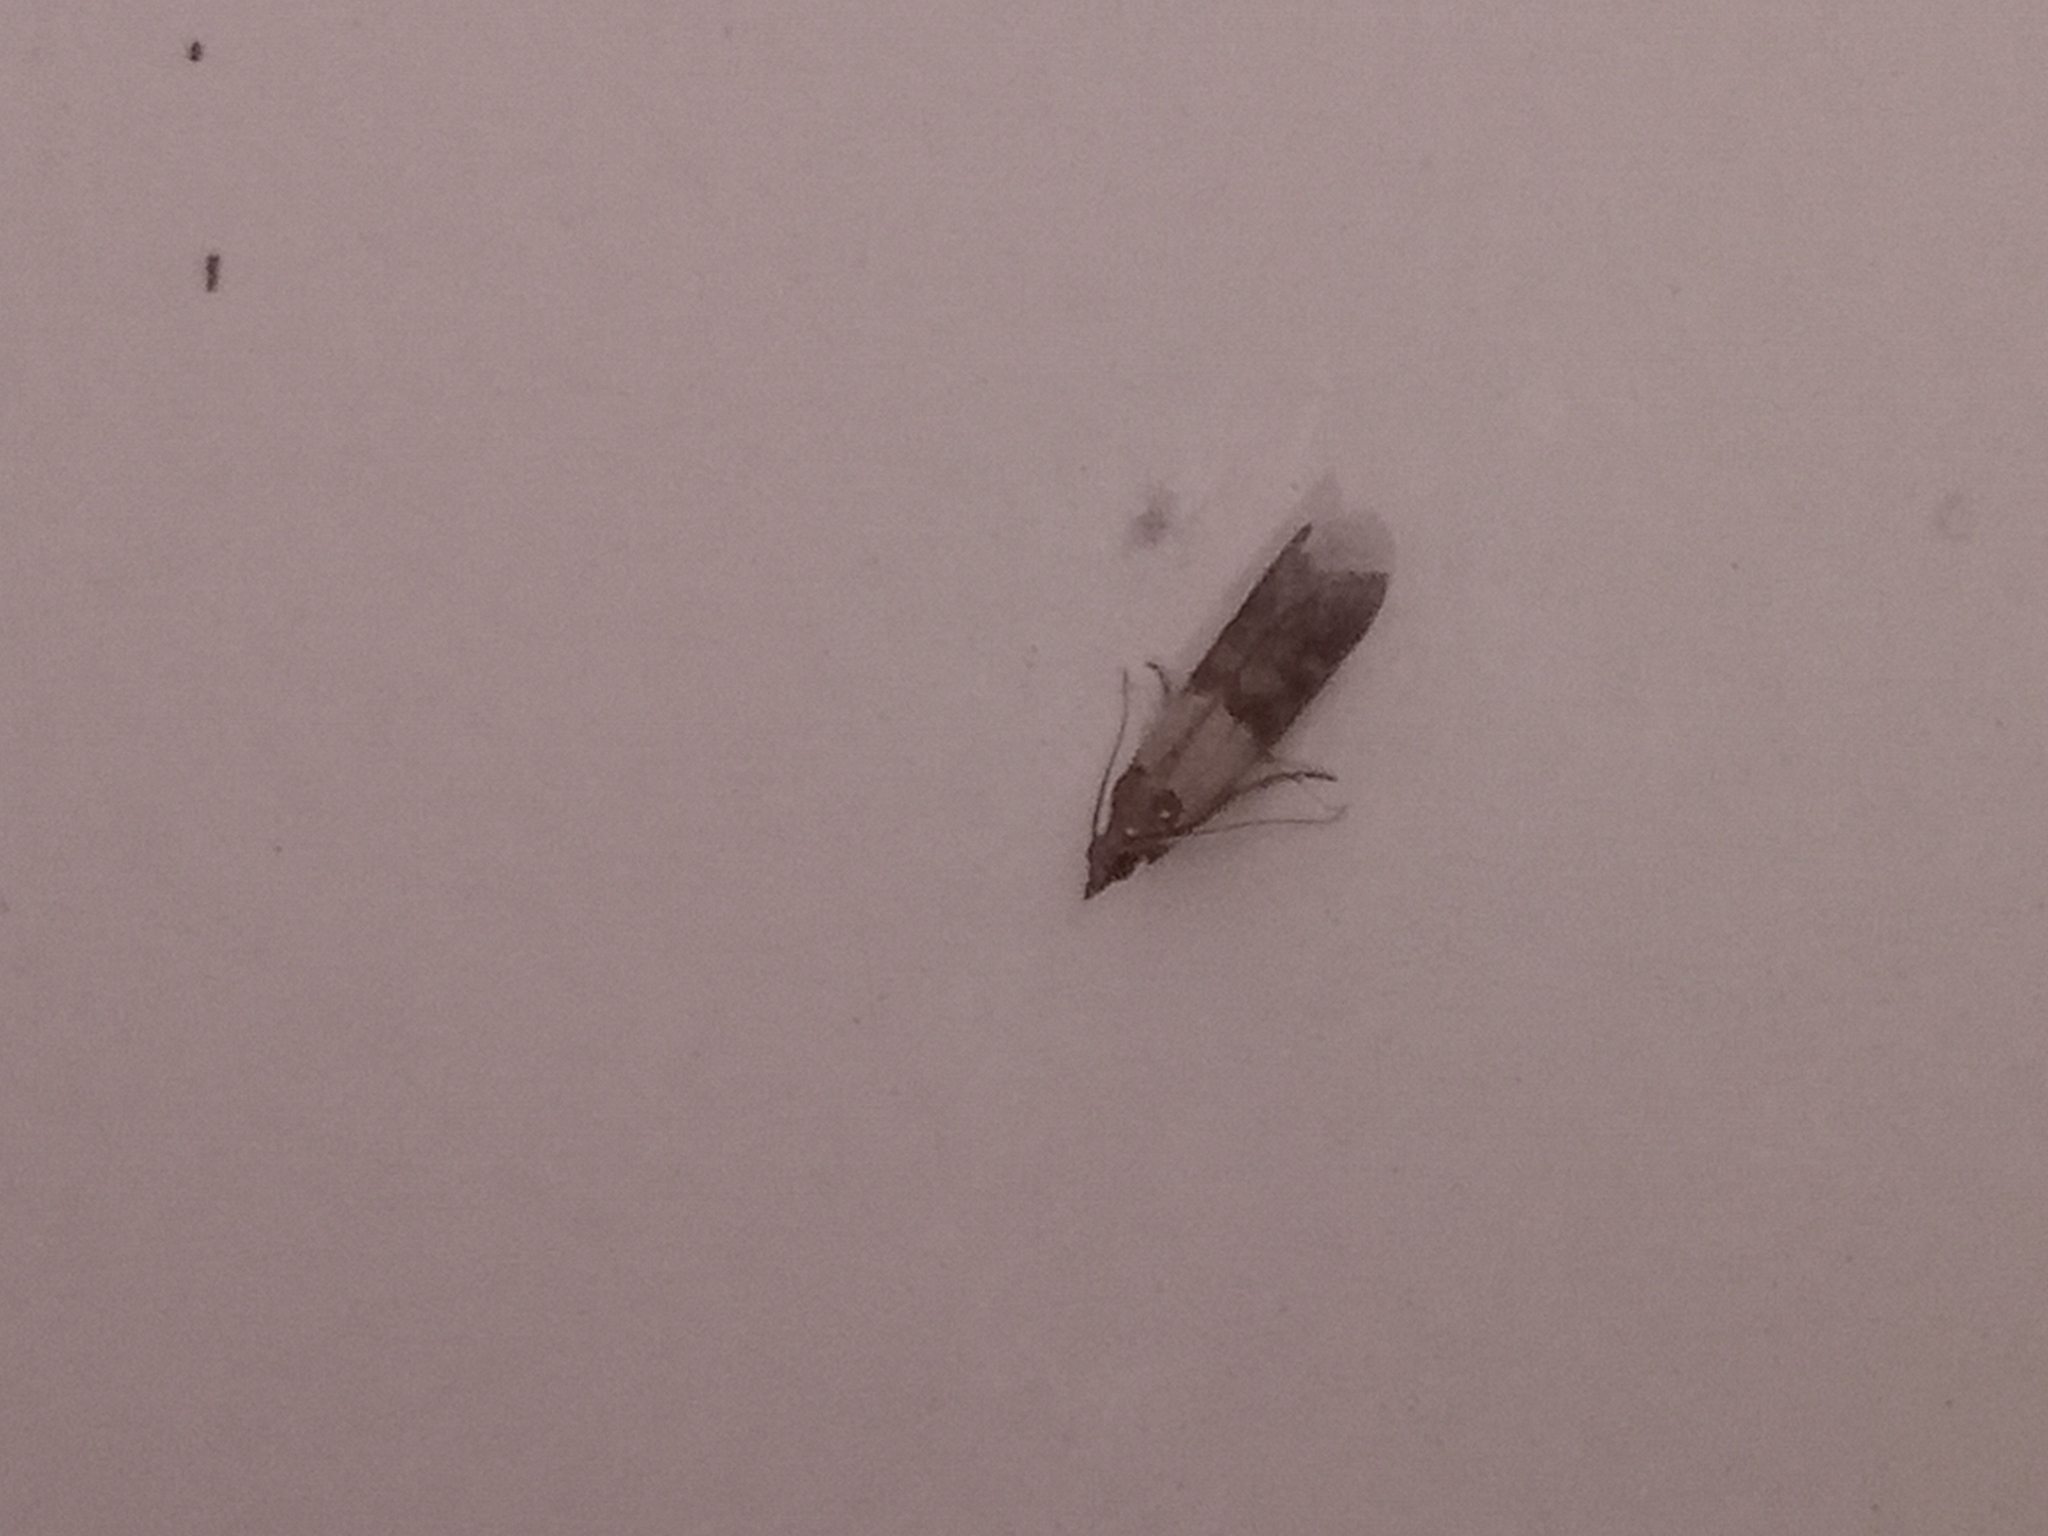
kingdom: Animalia
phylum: Arthropoda
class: Insecta
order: Lepidoptera
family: Pyralidae
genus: Plodia
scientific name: Plodia interpunctella
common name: Indian meal moth
